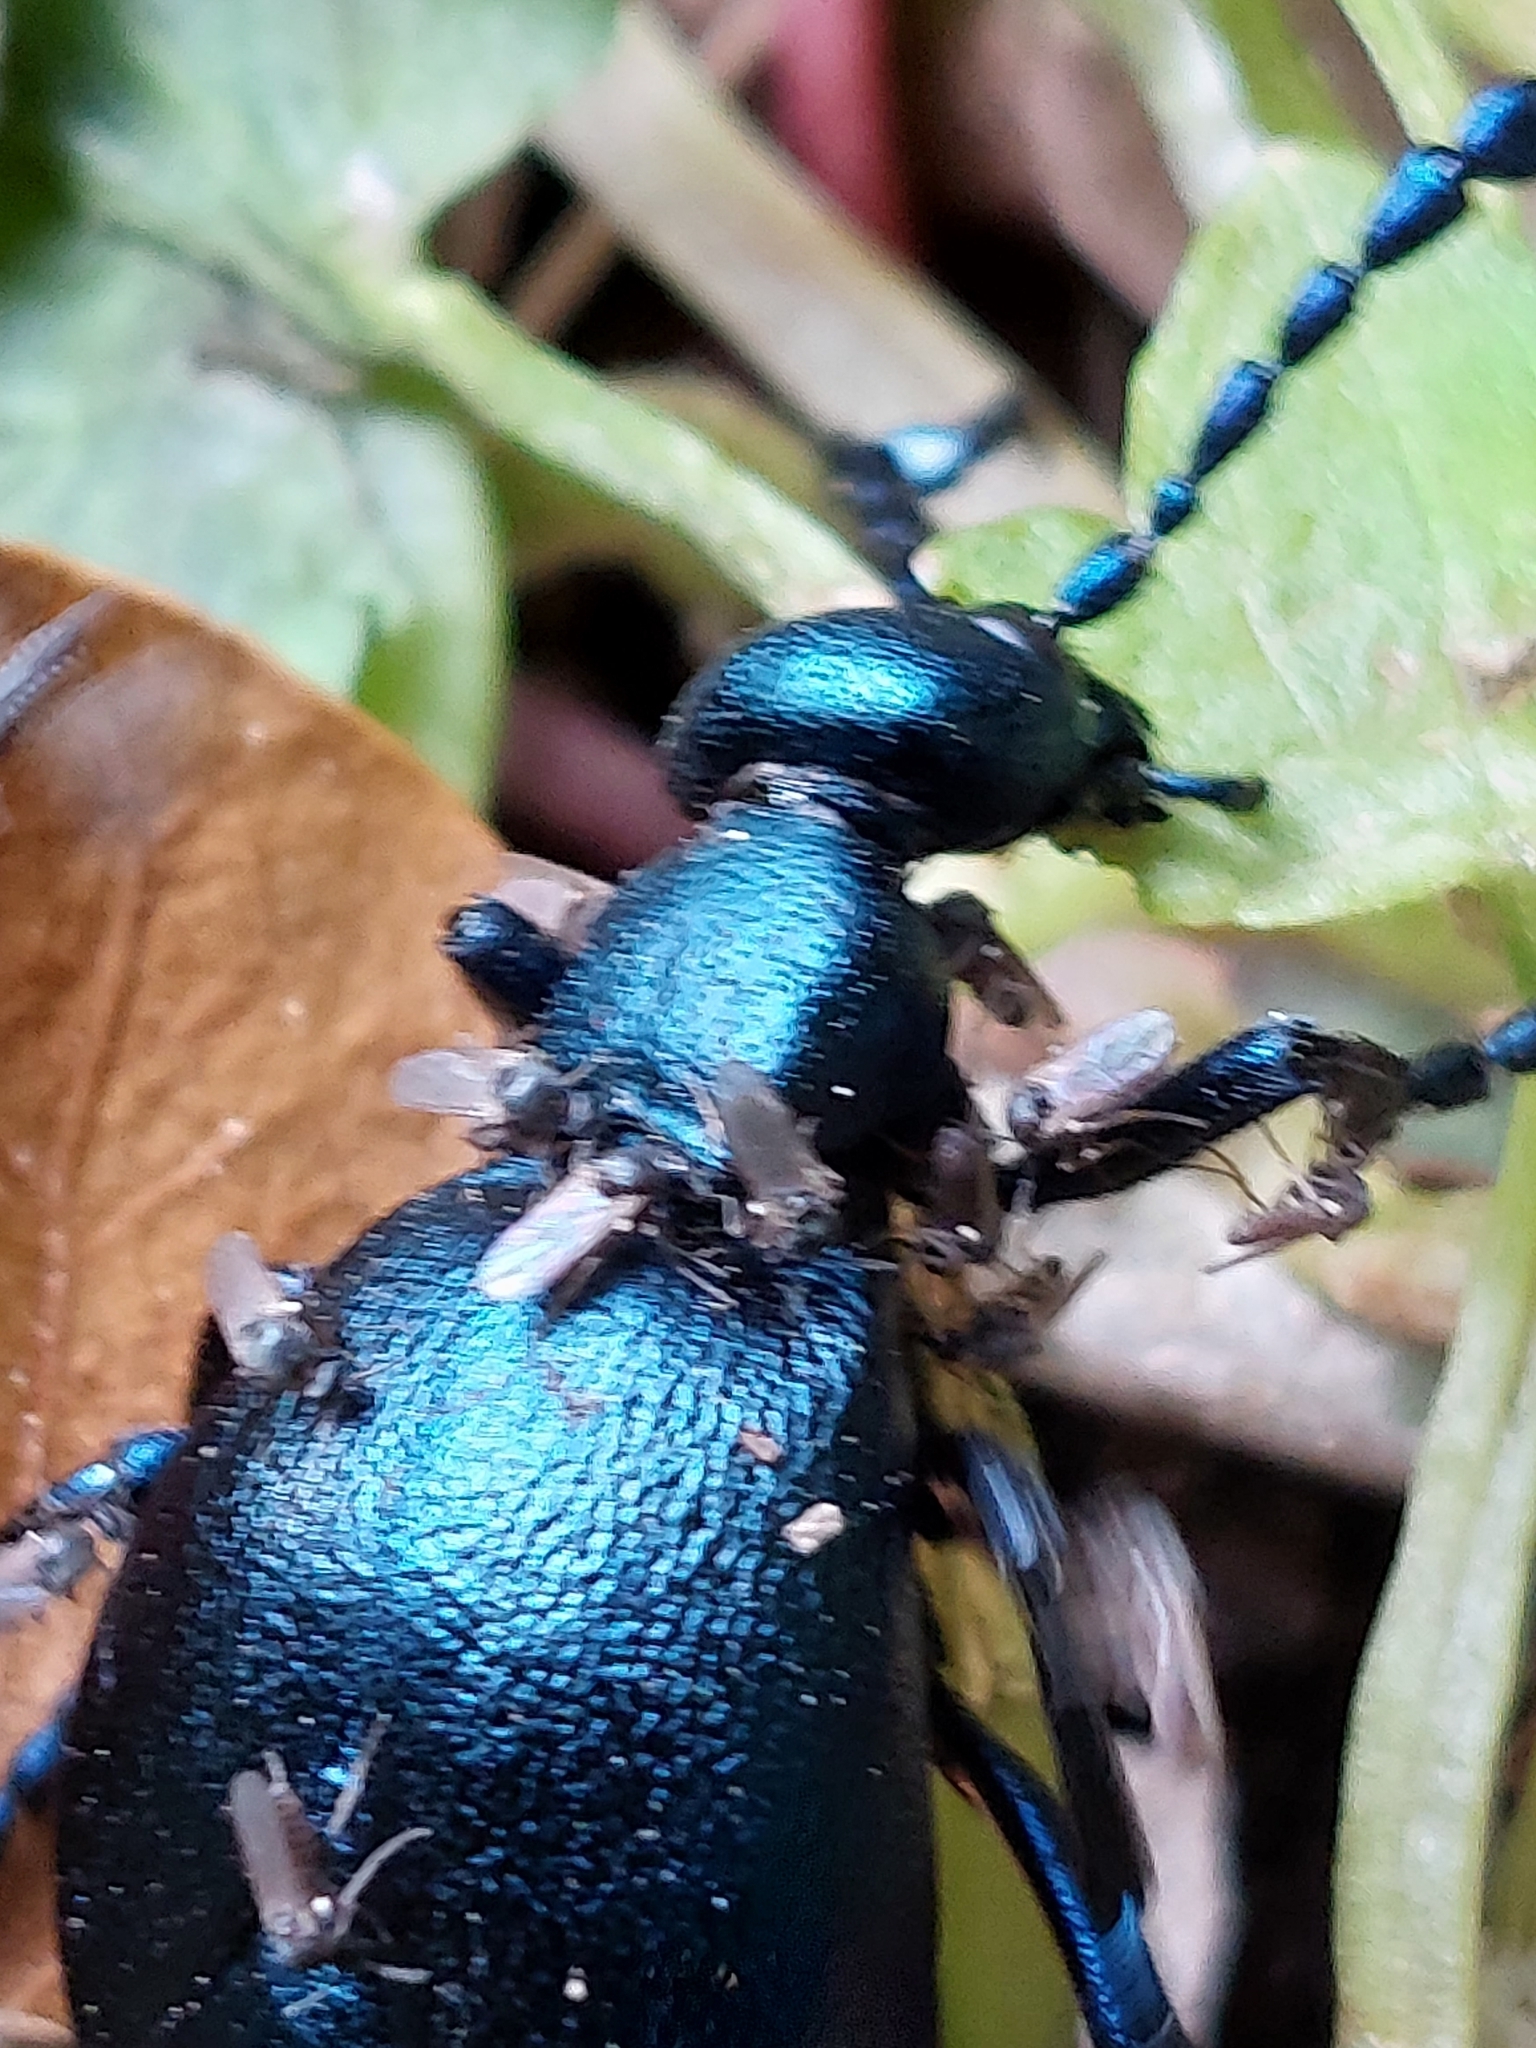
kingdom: Animalia
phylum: Arthropoda
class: Insecta
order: Coleoptera
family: Meloidae
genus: Meloe
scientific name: Meloe violaceus
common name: Violet oil-beetle
